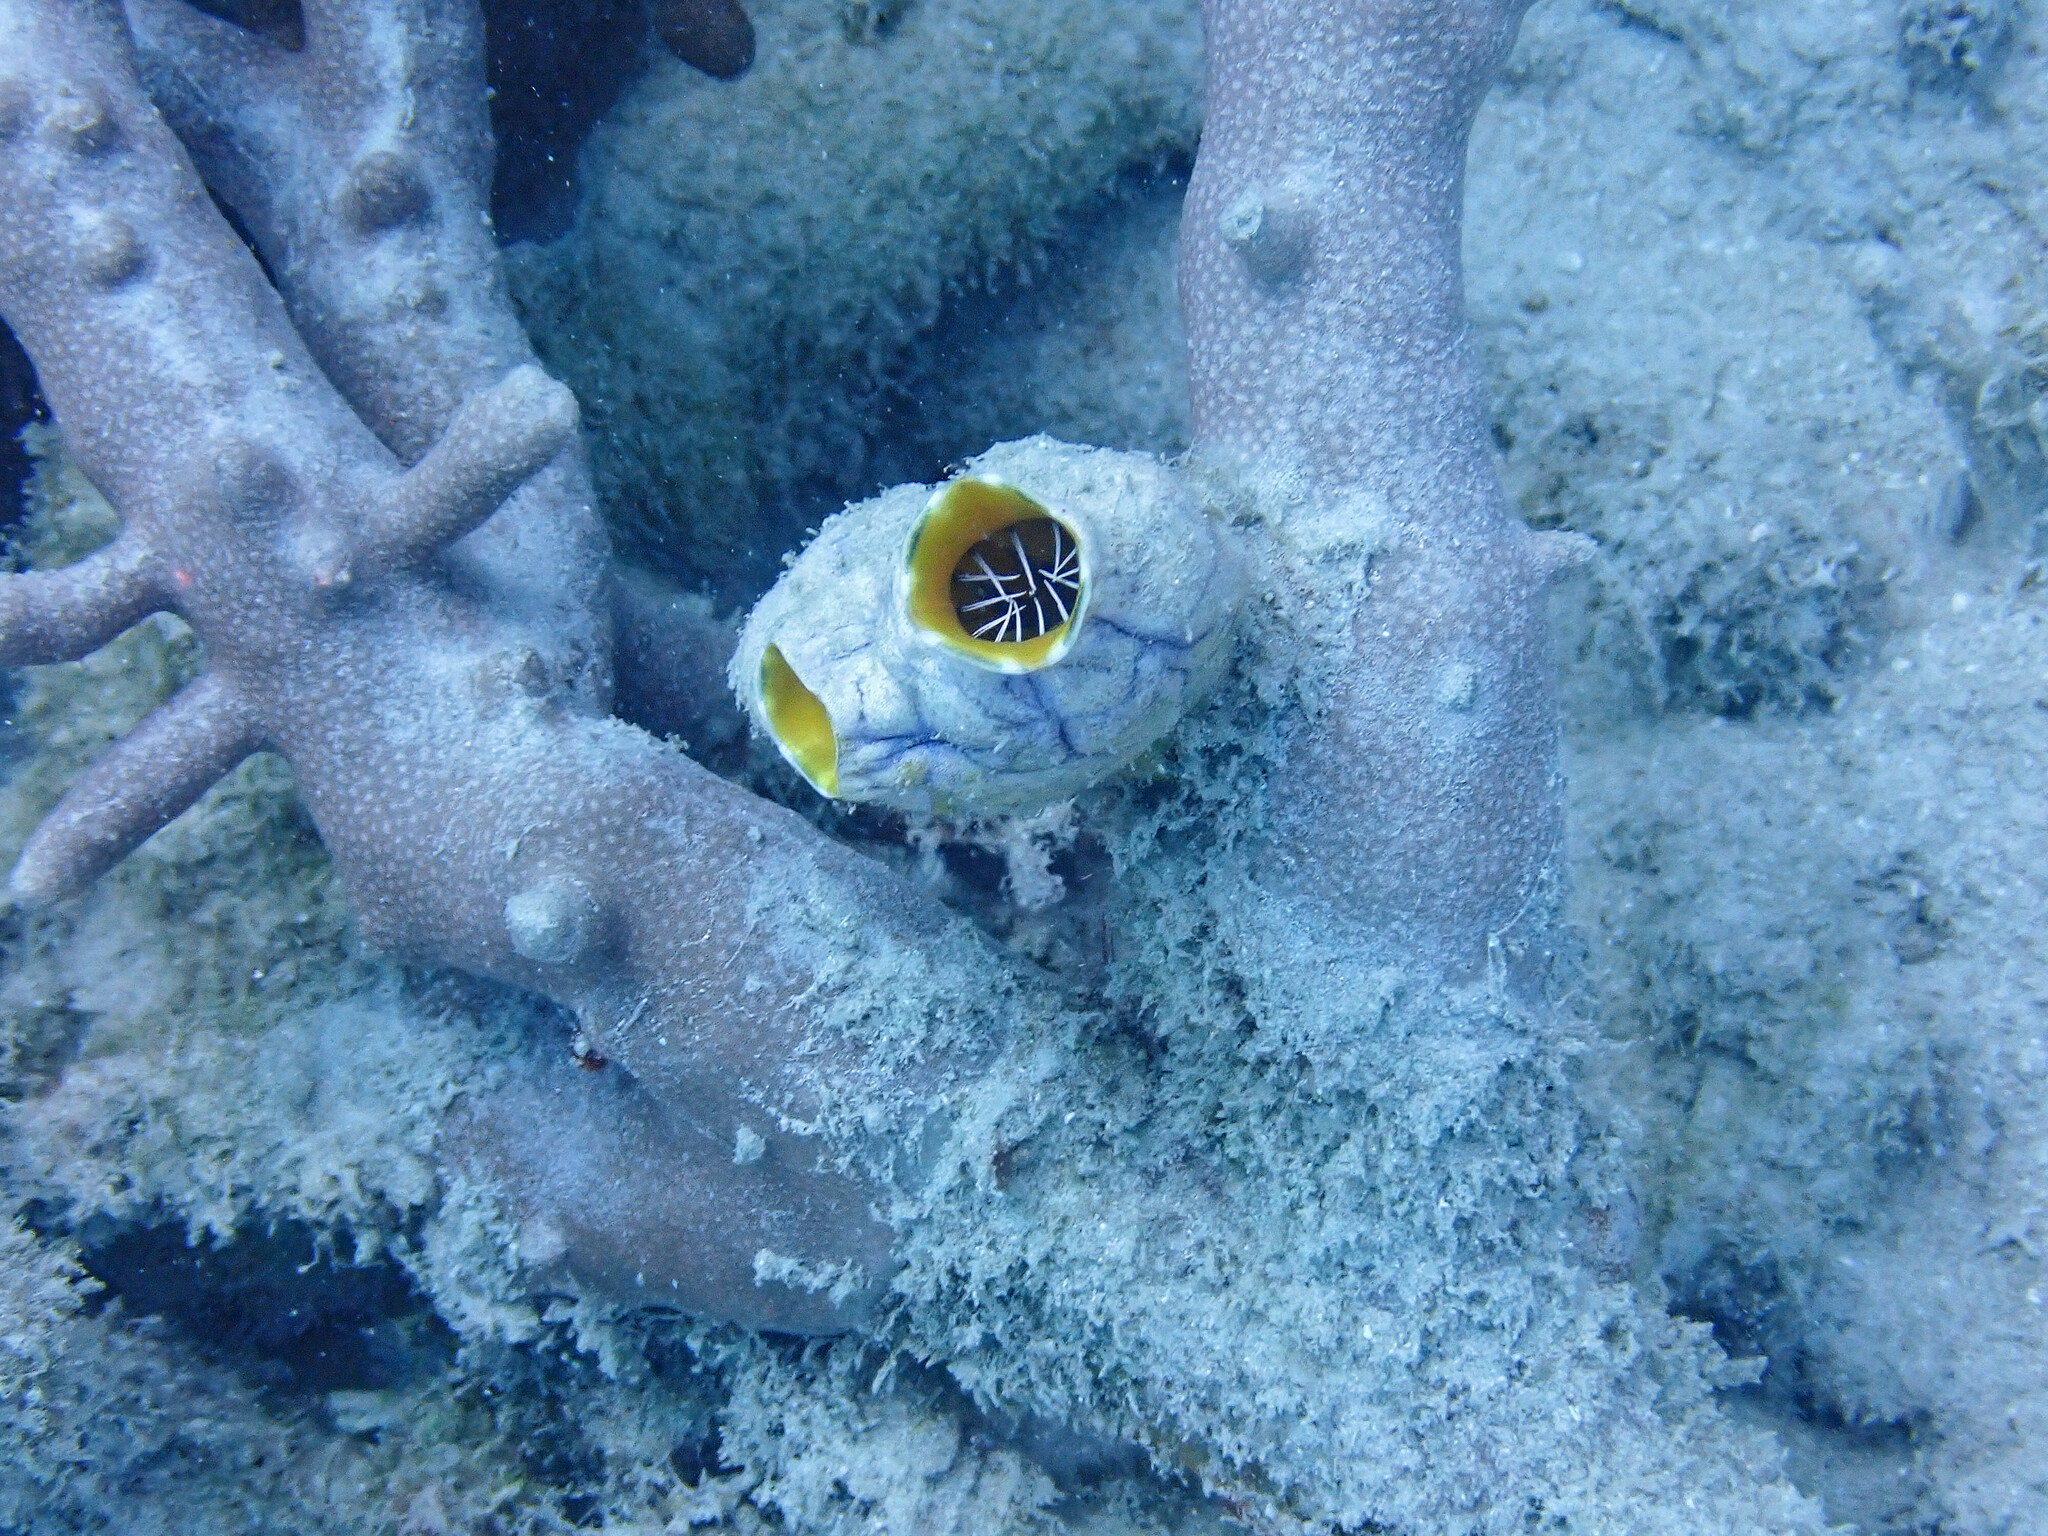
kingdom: Animalia
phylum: Chordata
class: Ascidiacea
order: Stolidobranchia
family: Styelidae
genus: Polycarpa
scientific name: Polycarpa aurata
